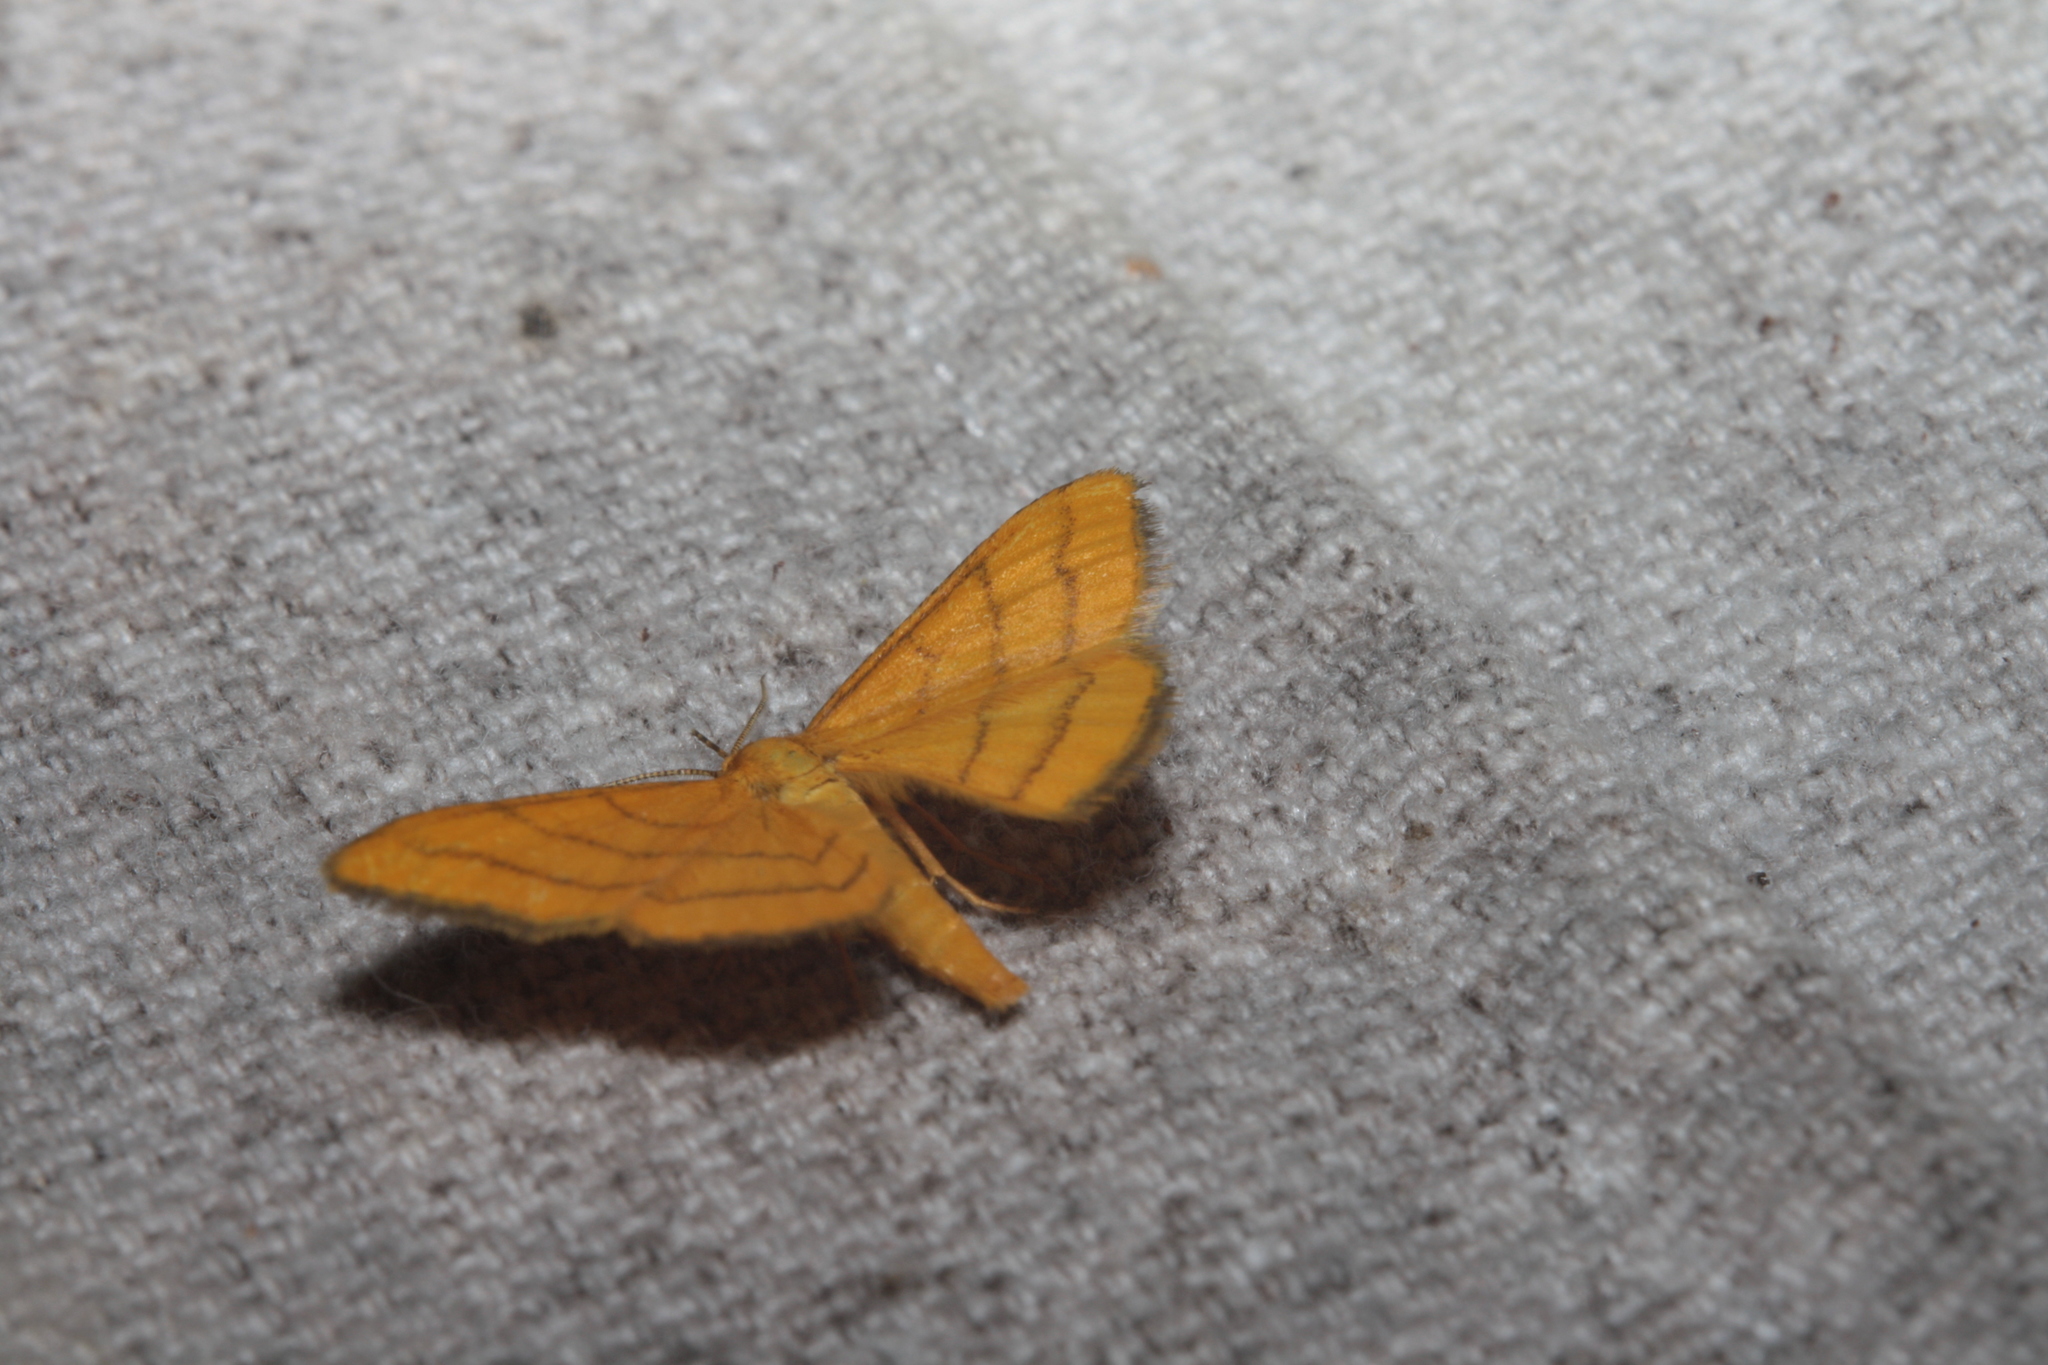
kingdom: Animalia
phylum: Arthropoda
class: Insecta
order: Lepidoptera
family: Geometridae
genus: Idaea
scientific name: Idaea aureolaria
